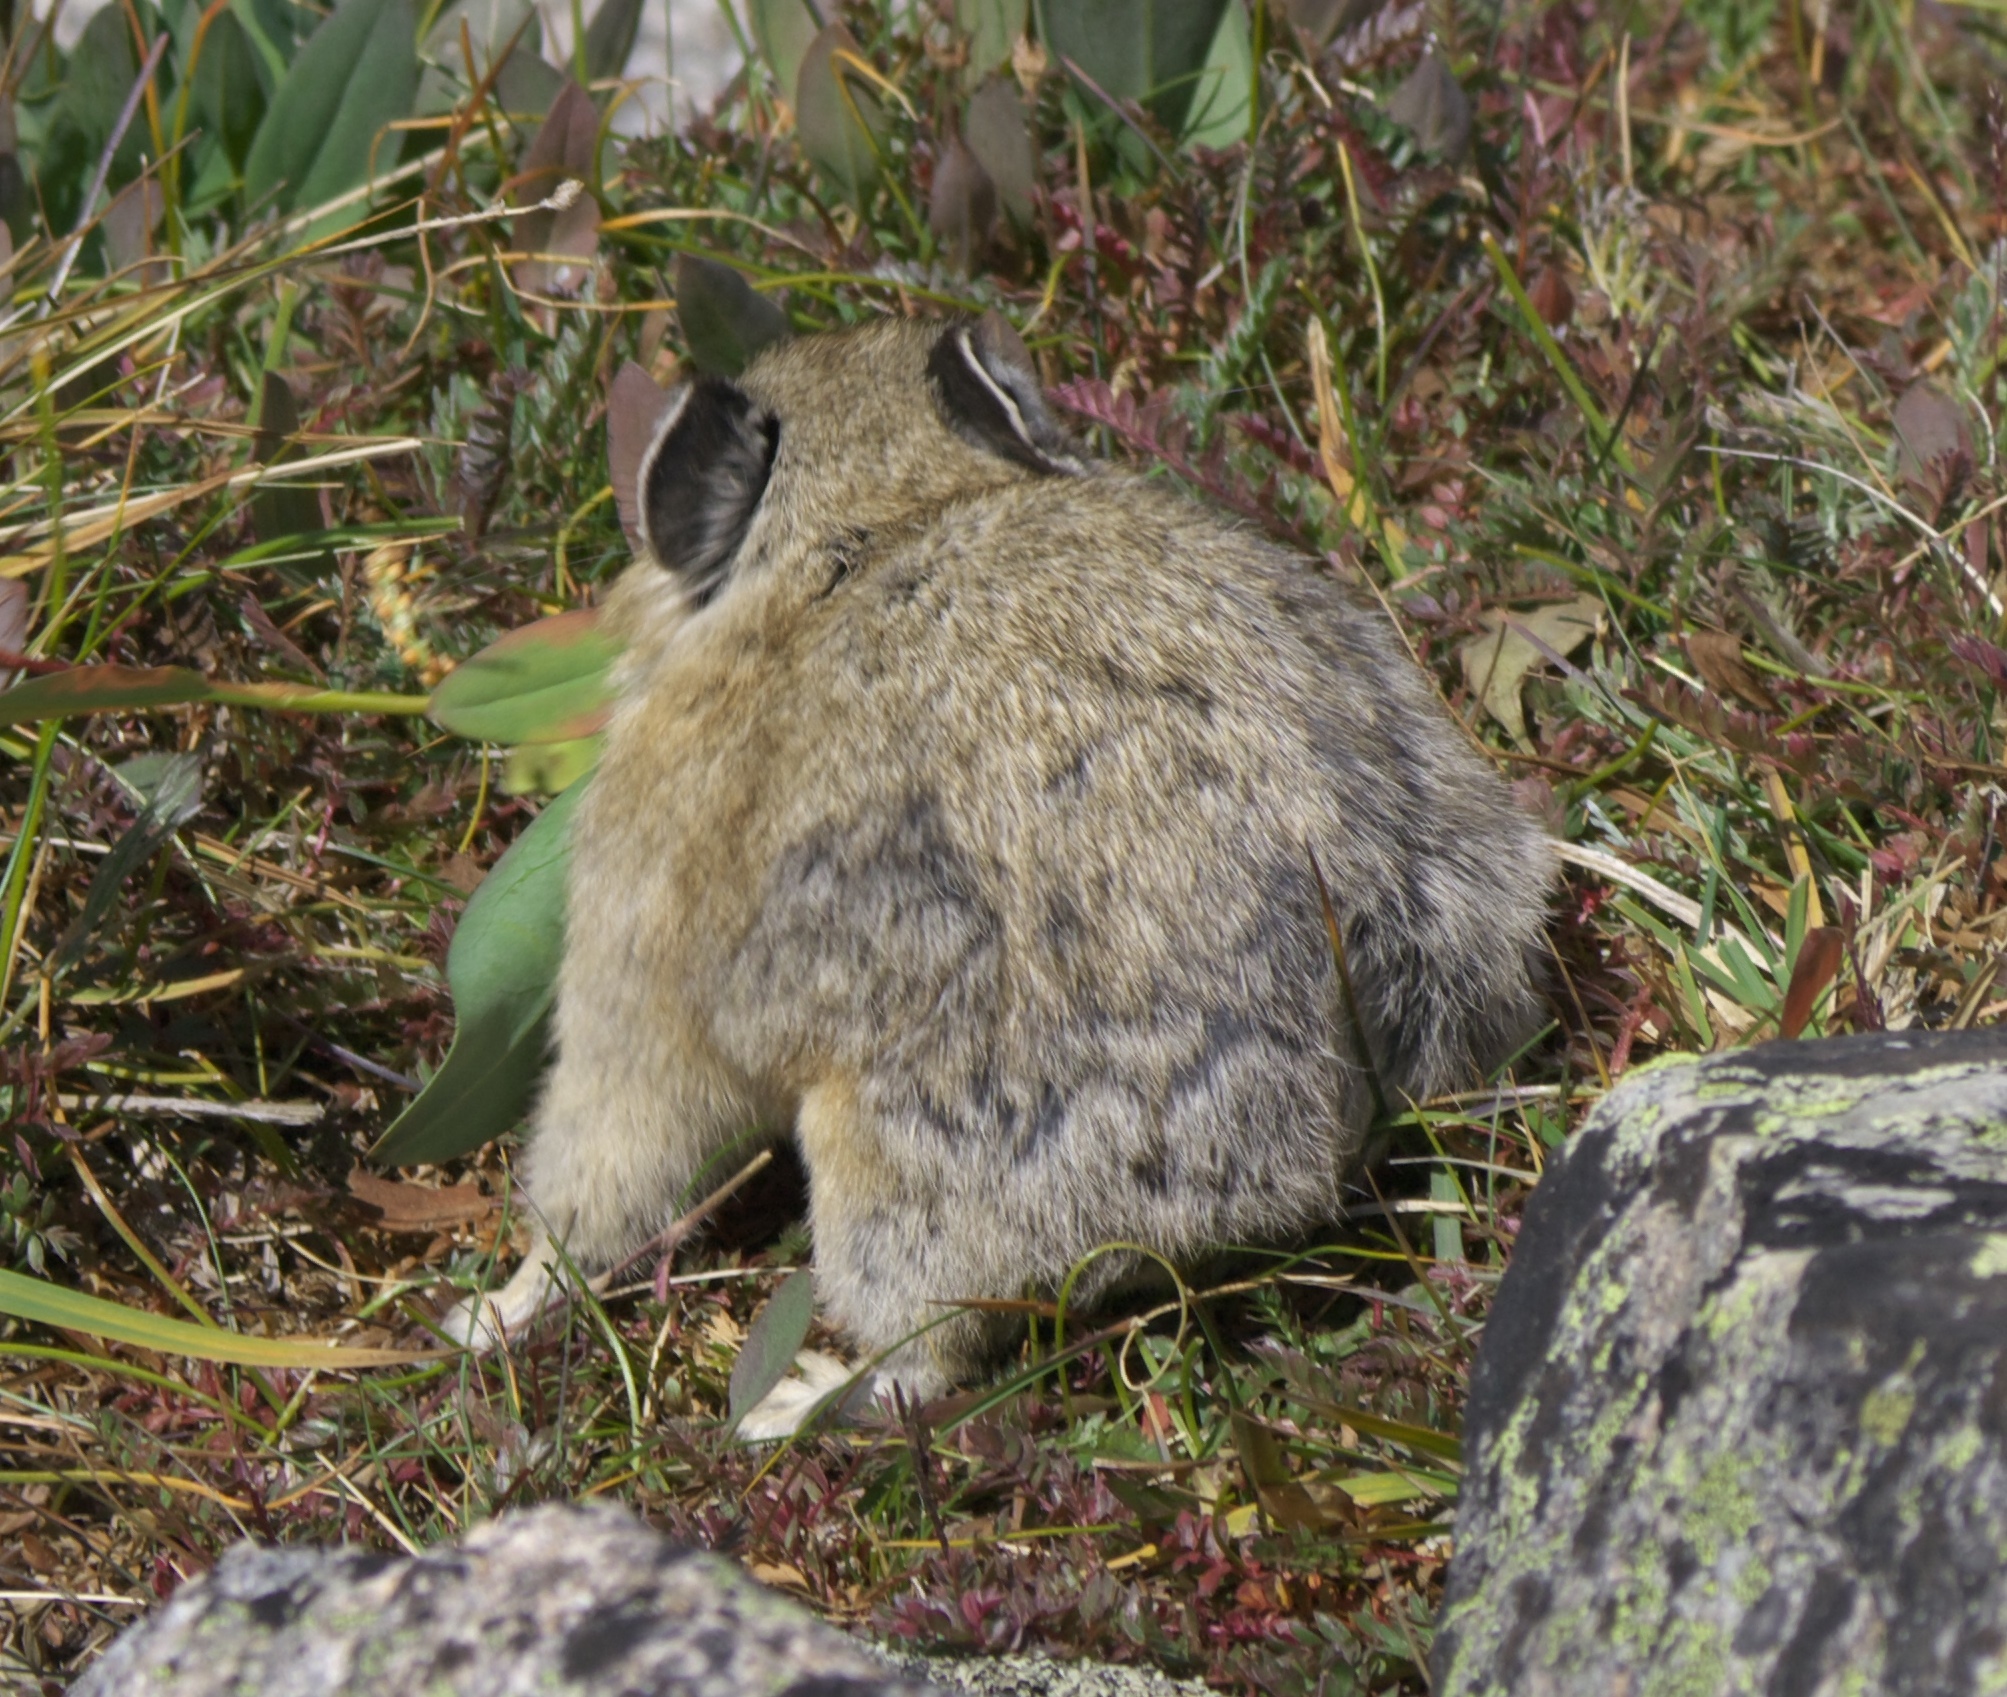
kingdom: Animalia
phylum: Chordata
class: Mammalia
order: Lagomorpha
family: Ochotonidae
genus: Ochotona
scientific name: Ochotona princeps
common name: American pika
